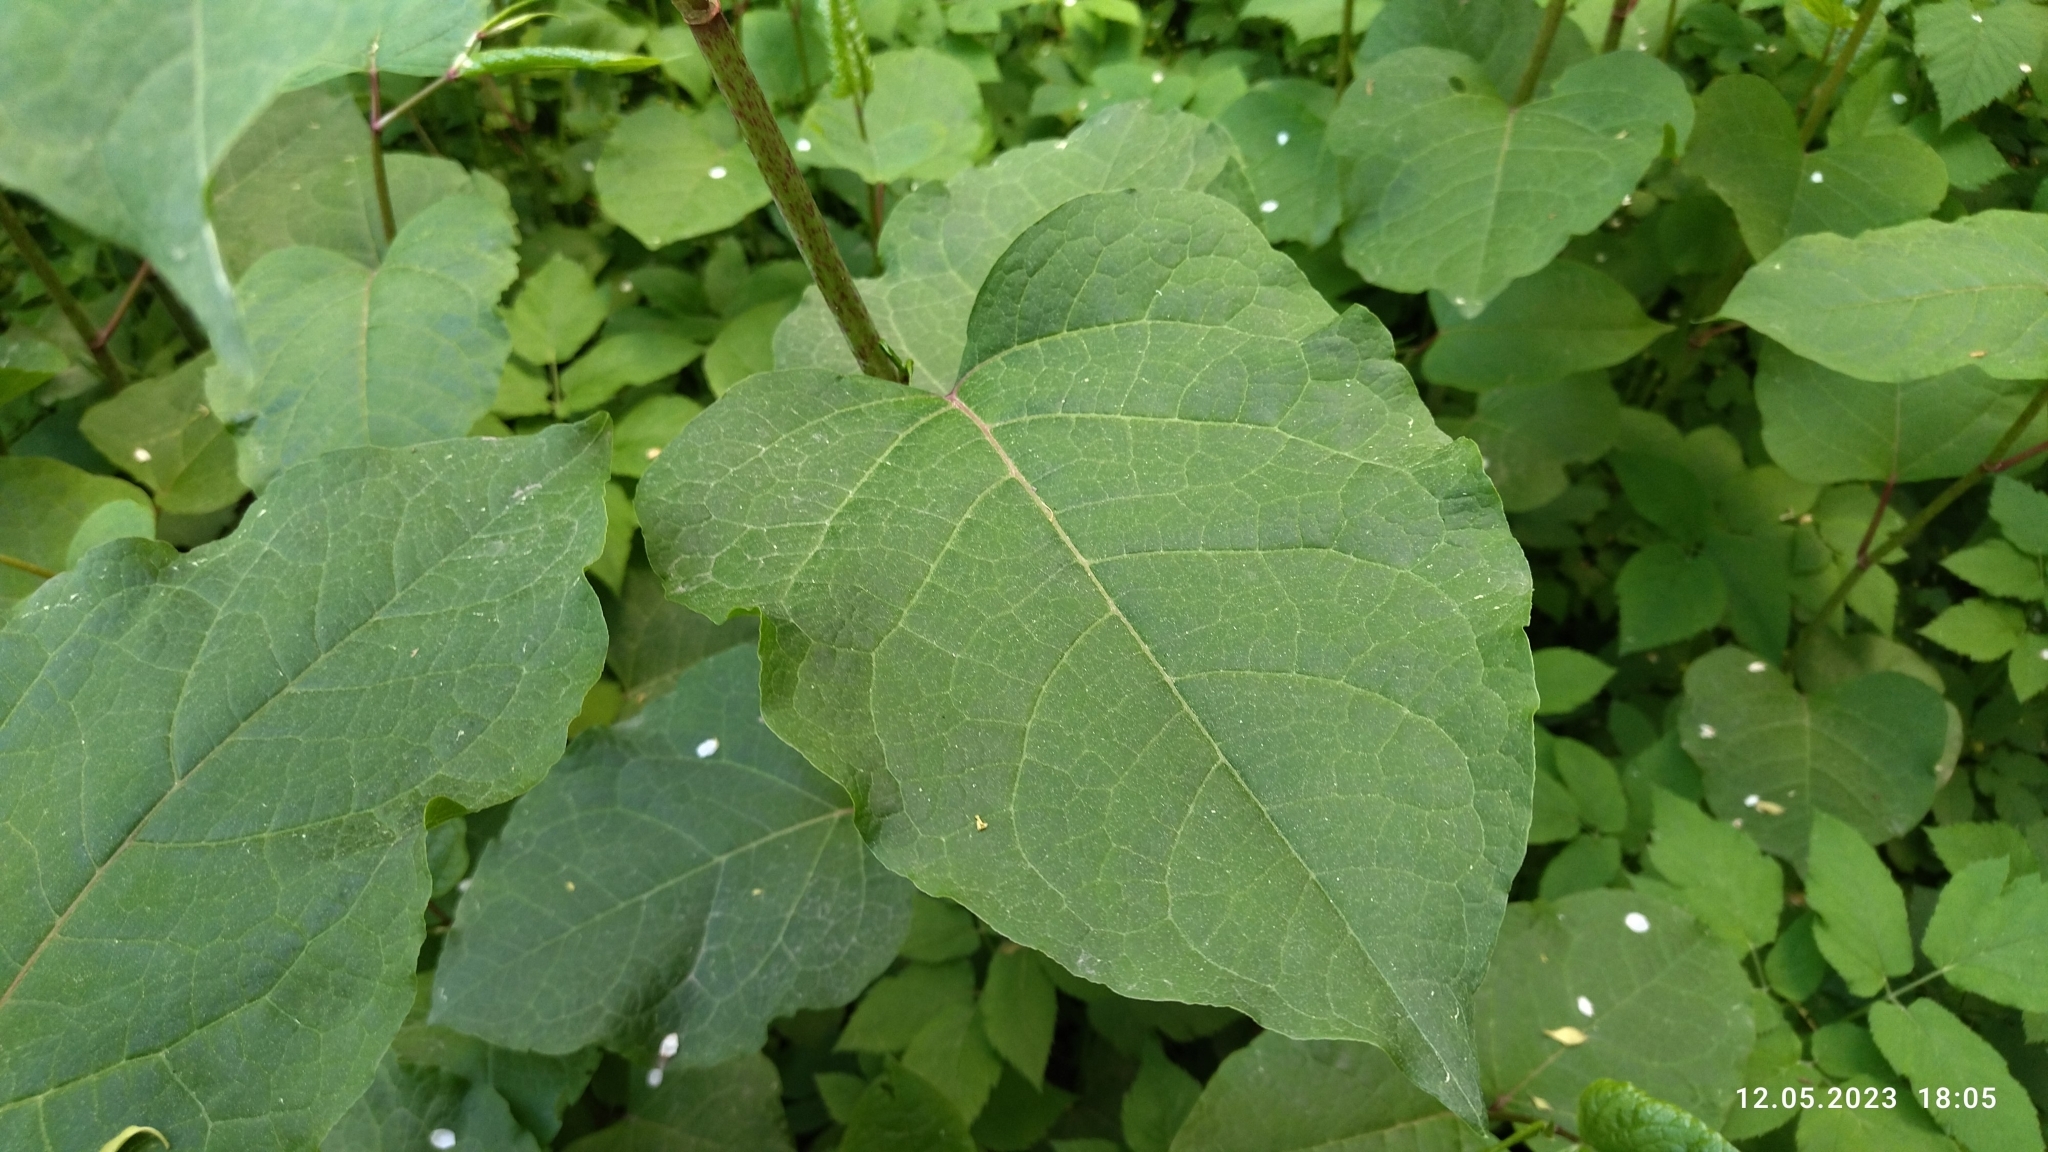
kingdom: Plantae
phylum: Tracheophyta
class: Magnoliopsida
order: Caryophyllales
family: Polygonaceae
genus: Reynoutria
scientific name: Reynoutria bohemica
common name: Bohemian knotweed
